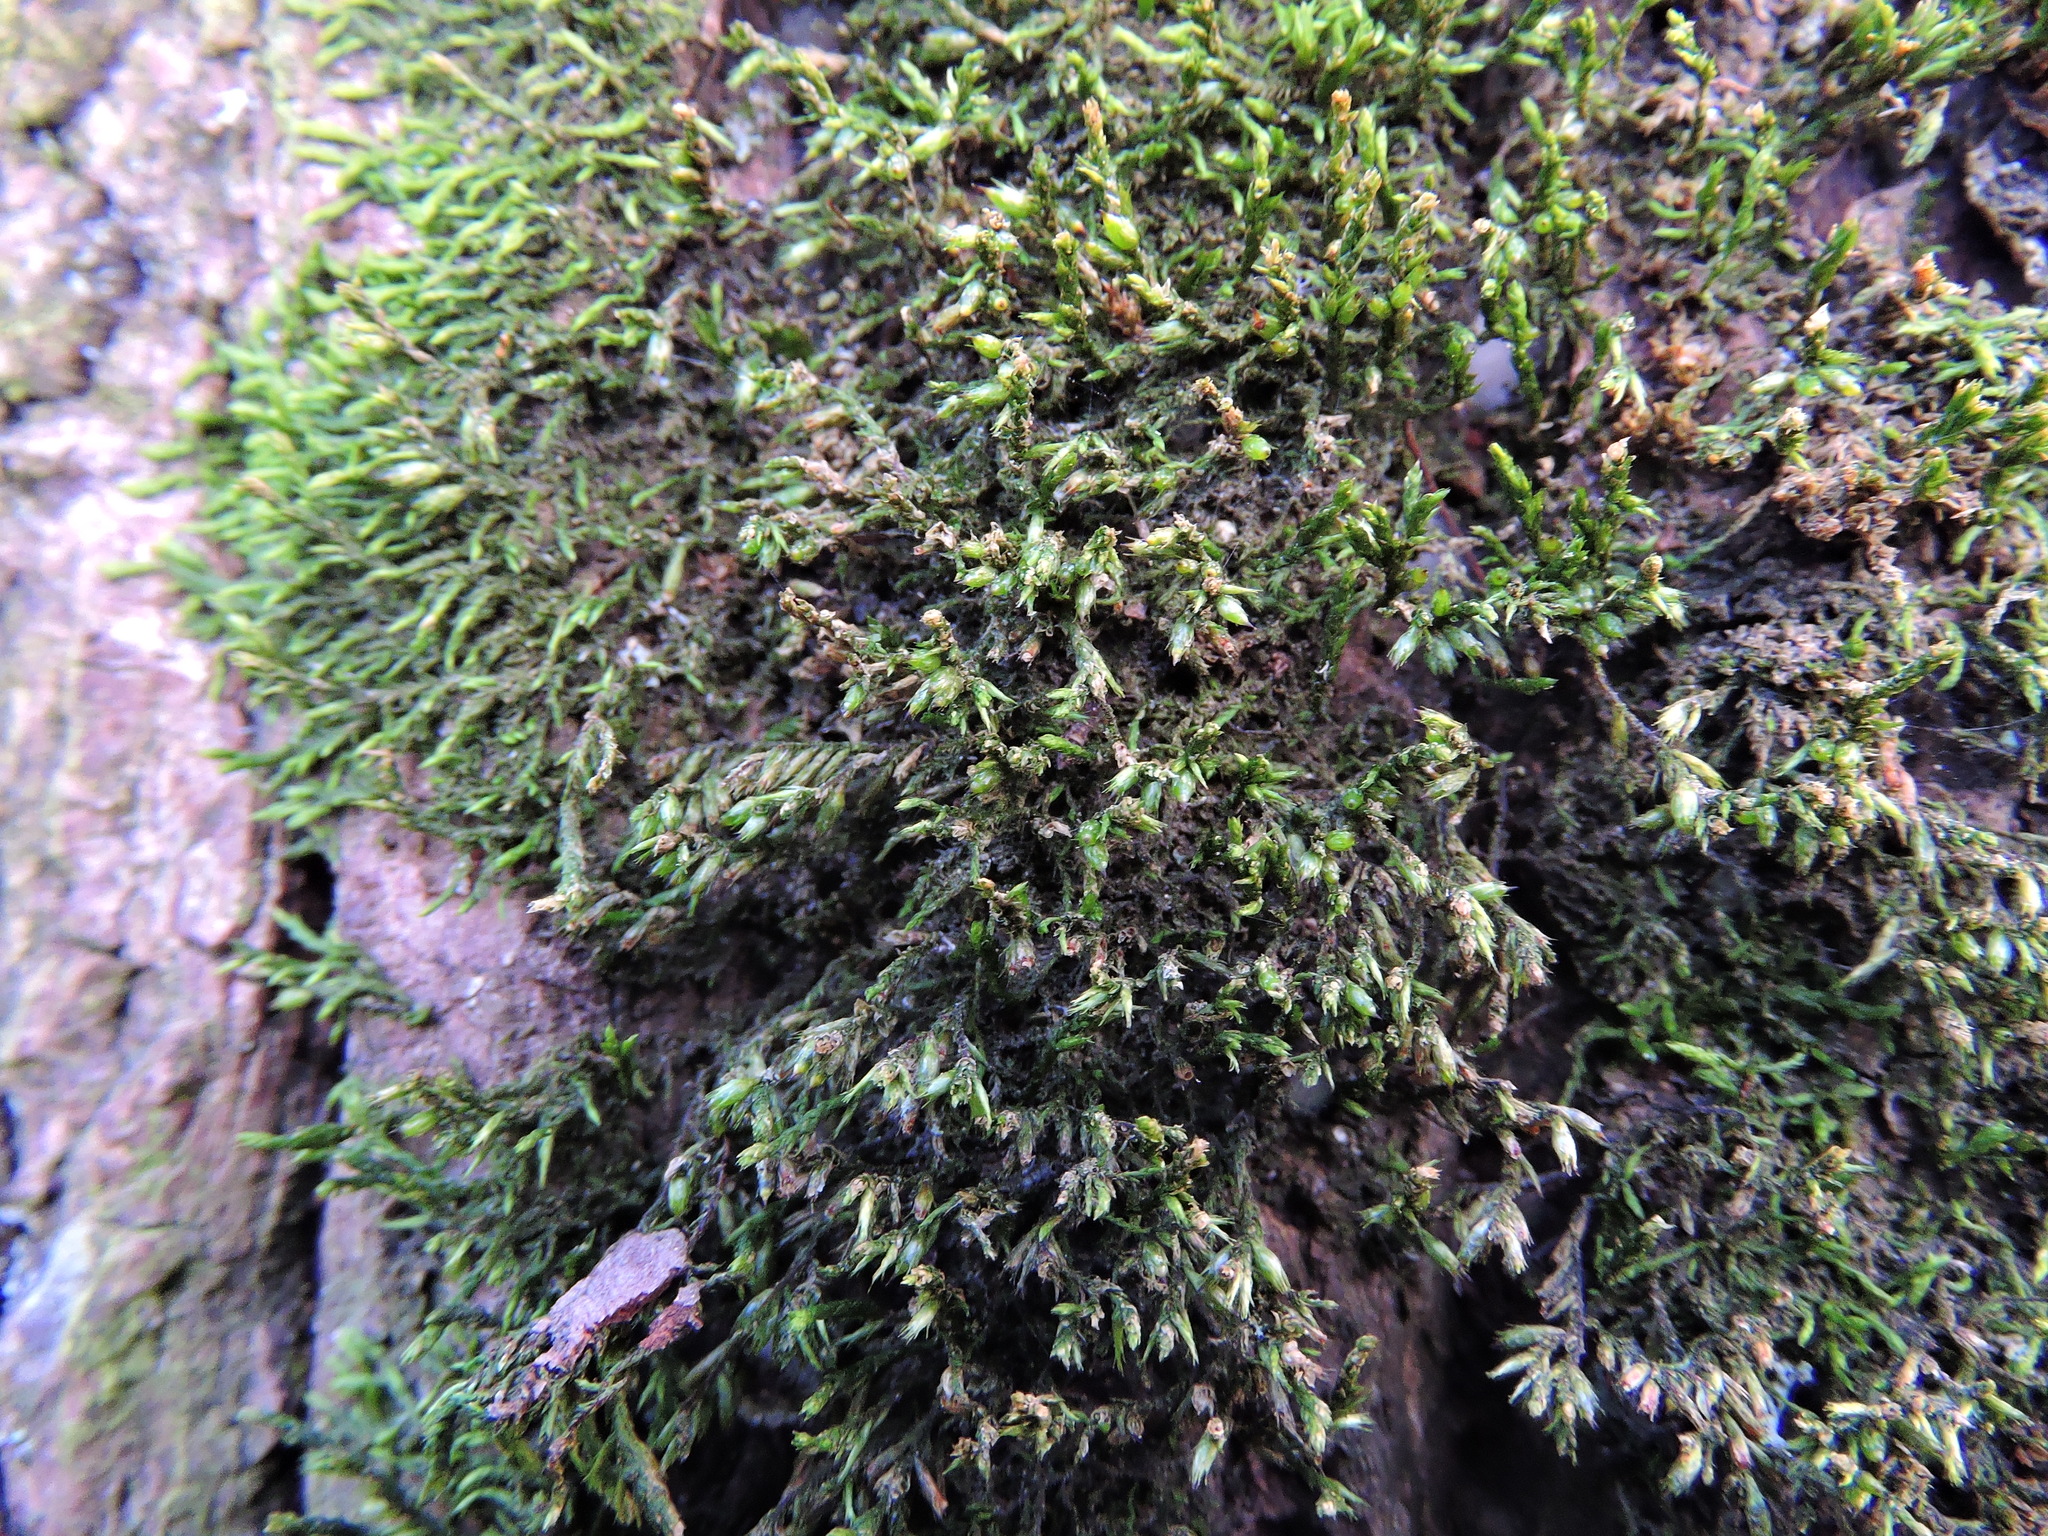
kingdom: Plantae
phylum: Bryophyta
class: Bryopsida
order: Hypnales
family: Cryphaeaceae
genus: Cryphaea
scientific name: Cryphaea heteromalla
